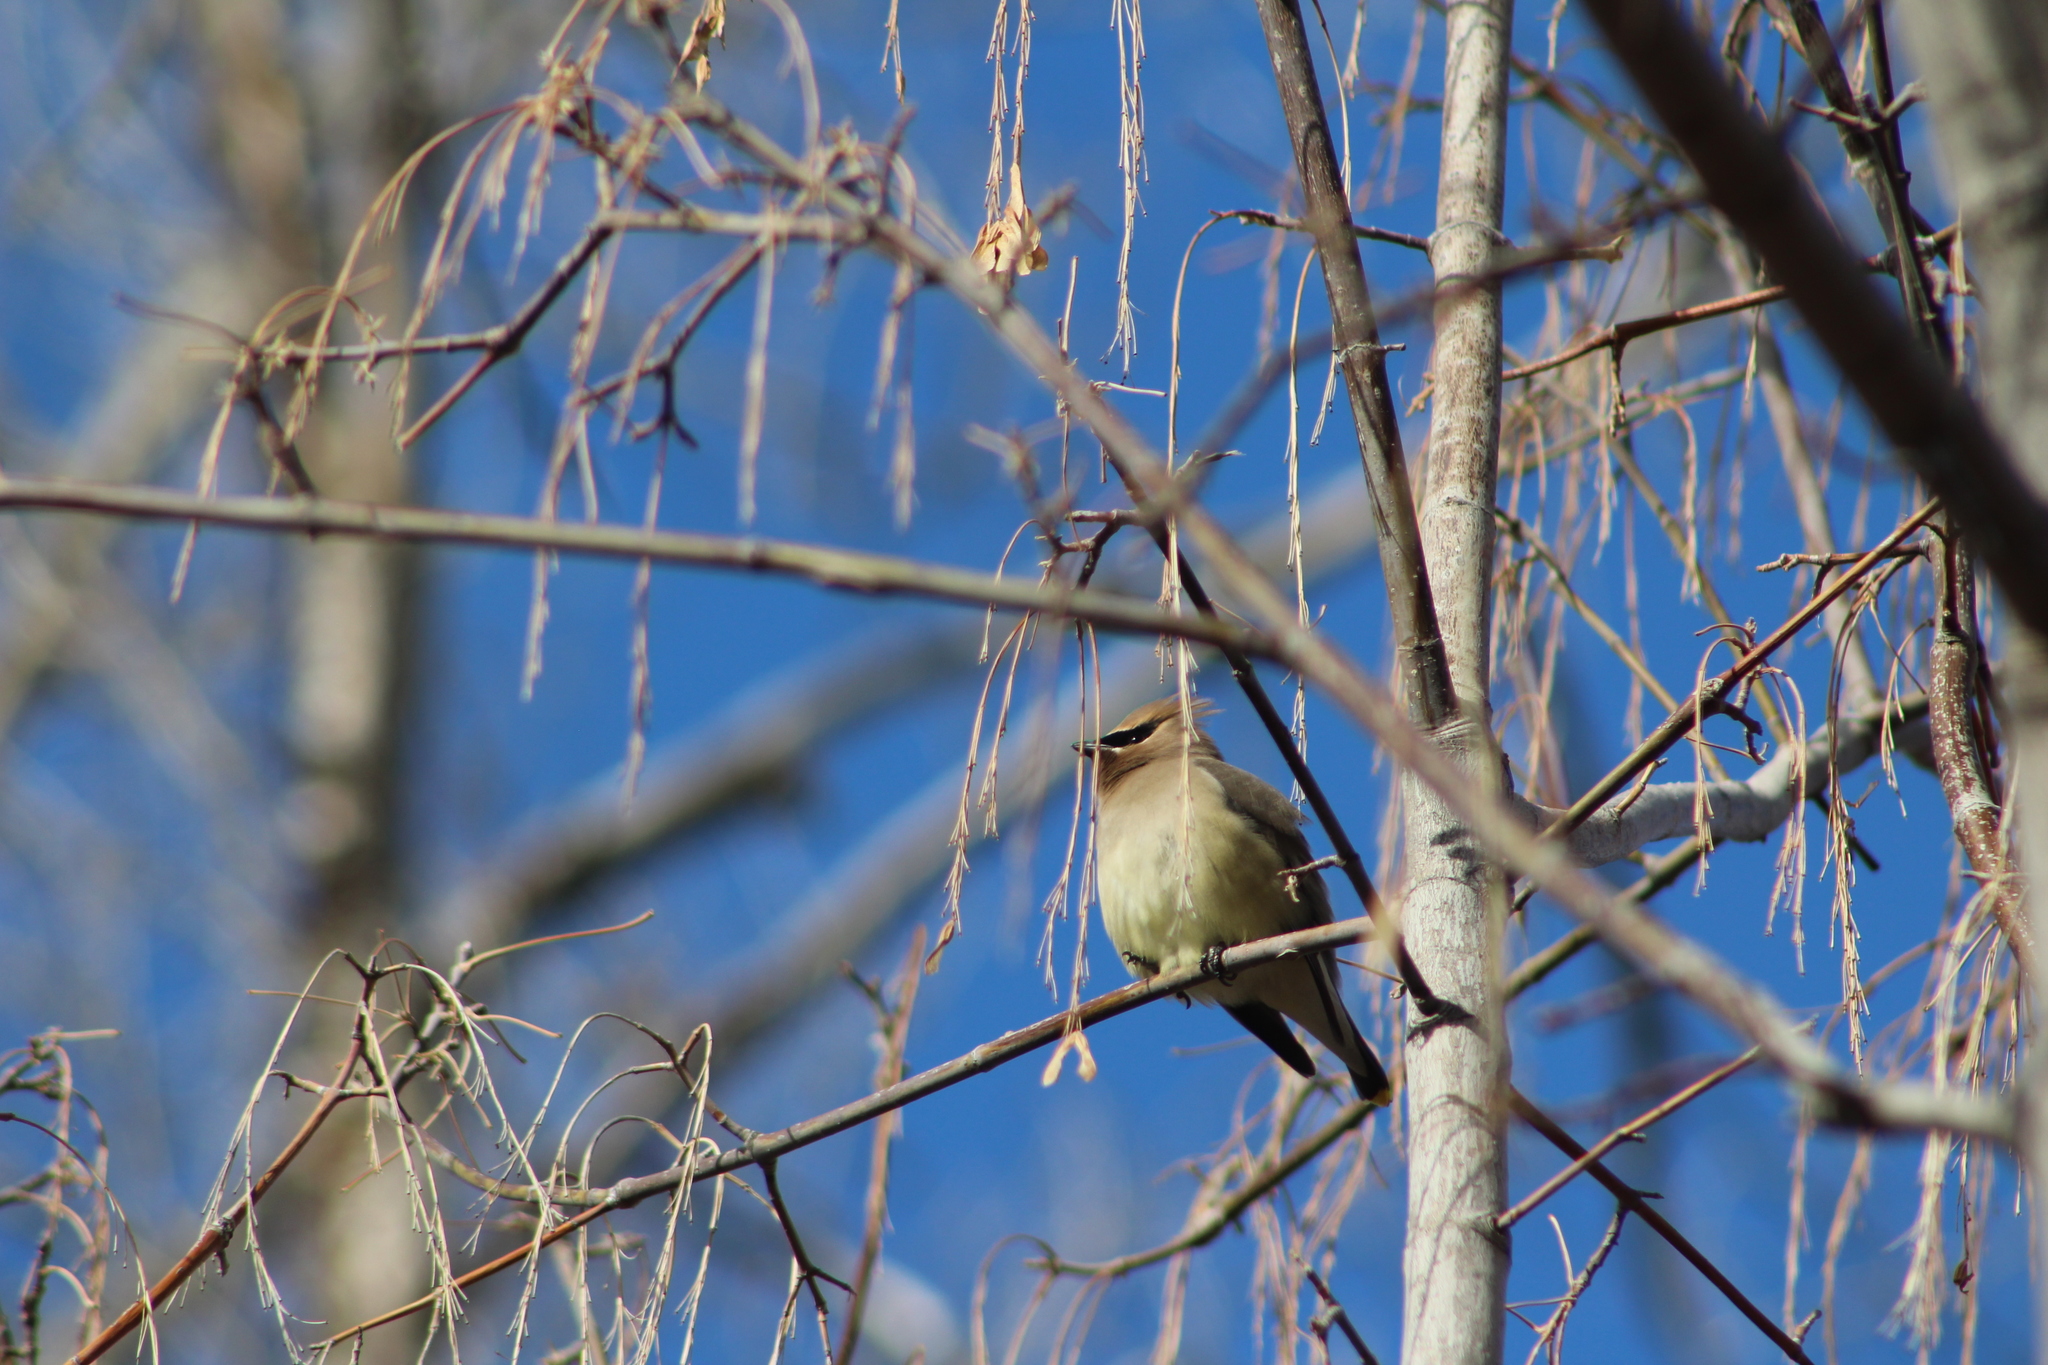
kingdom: Animalia
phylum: Chordata
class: Aves
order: Passeriformes
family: Bombycillidae
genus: Bombycilla
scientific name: Bombycilla cedrorum
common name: Cedar waxwing
